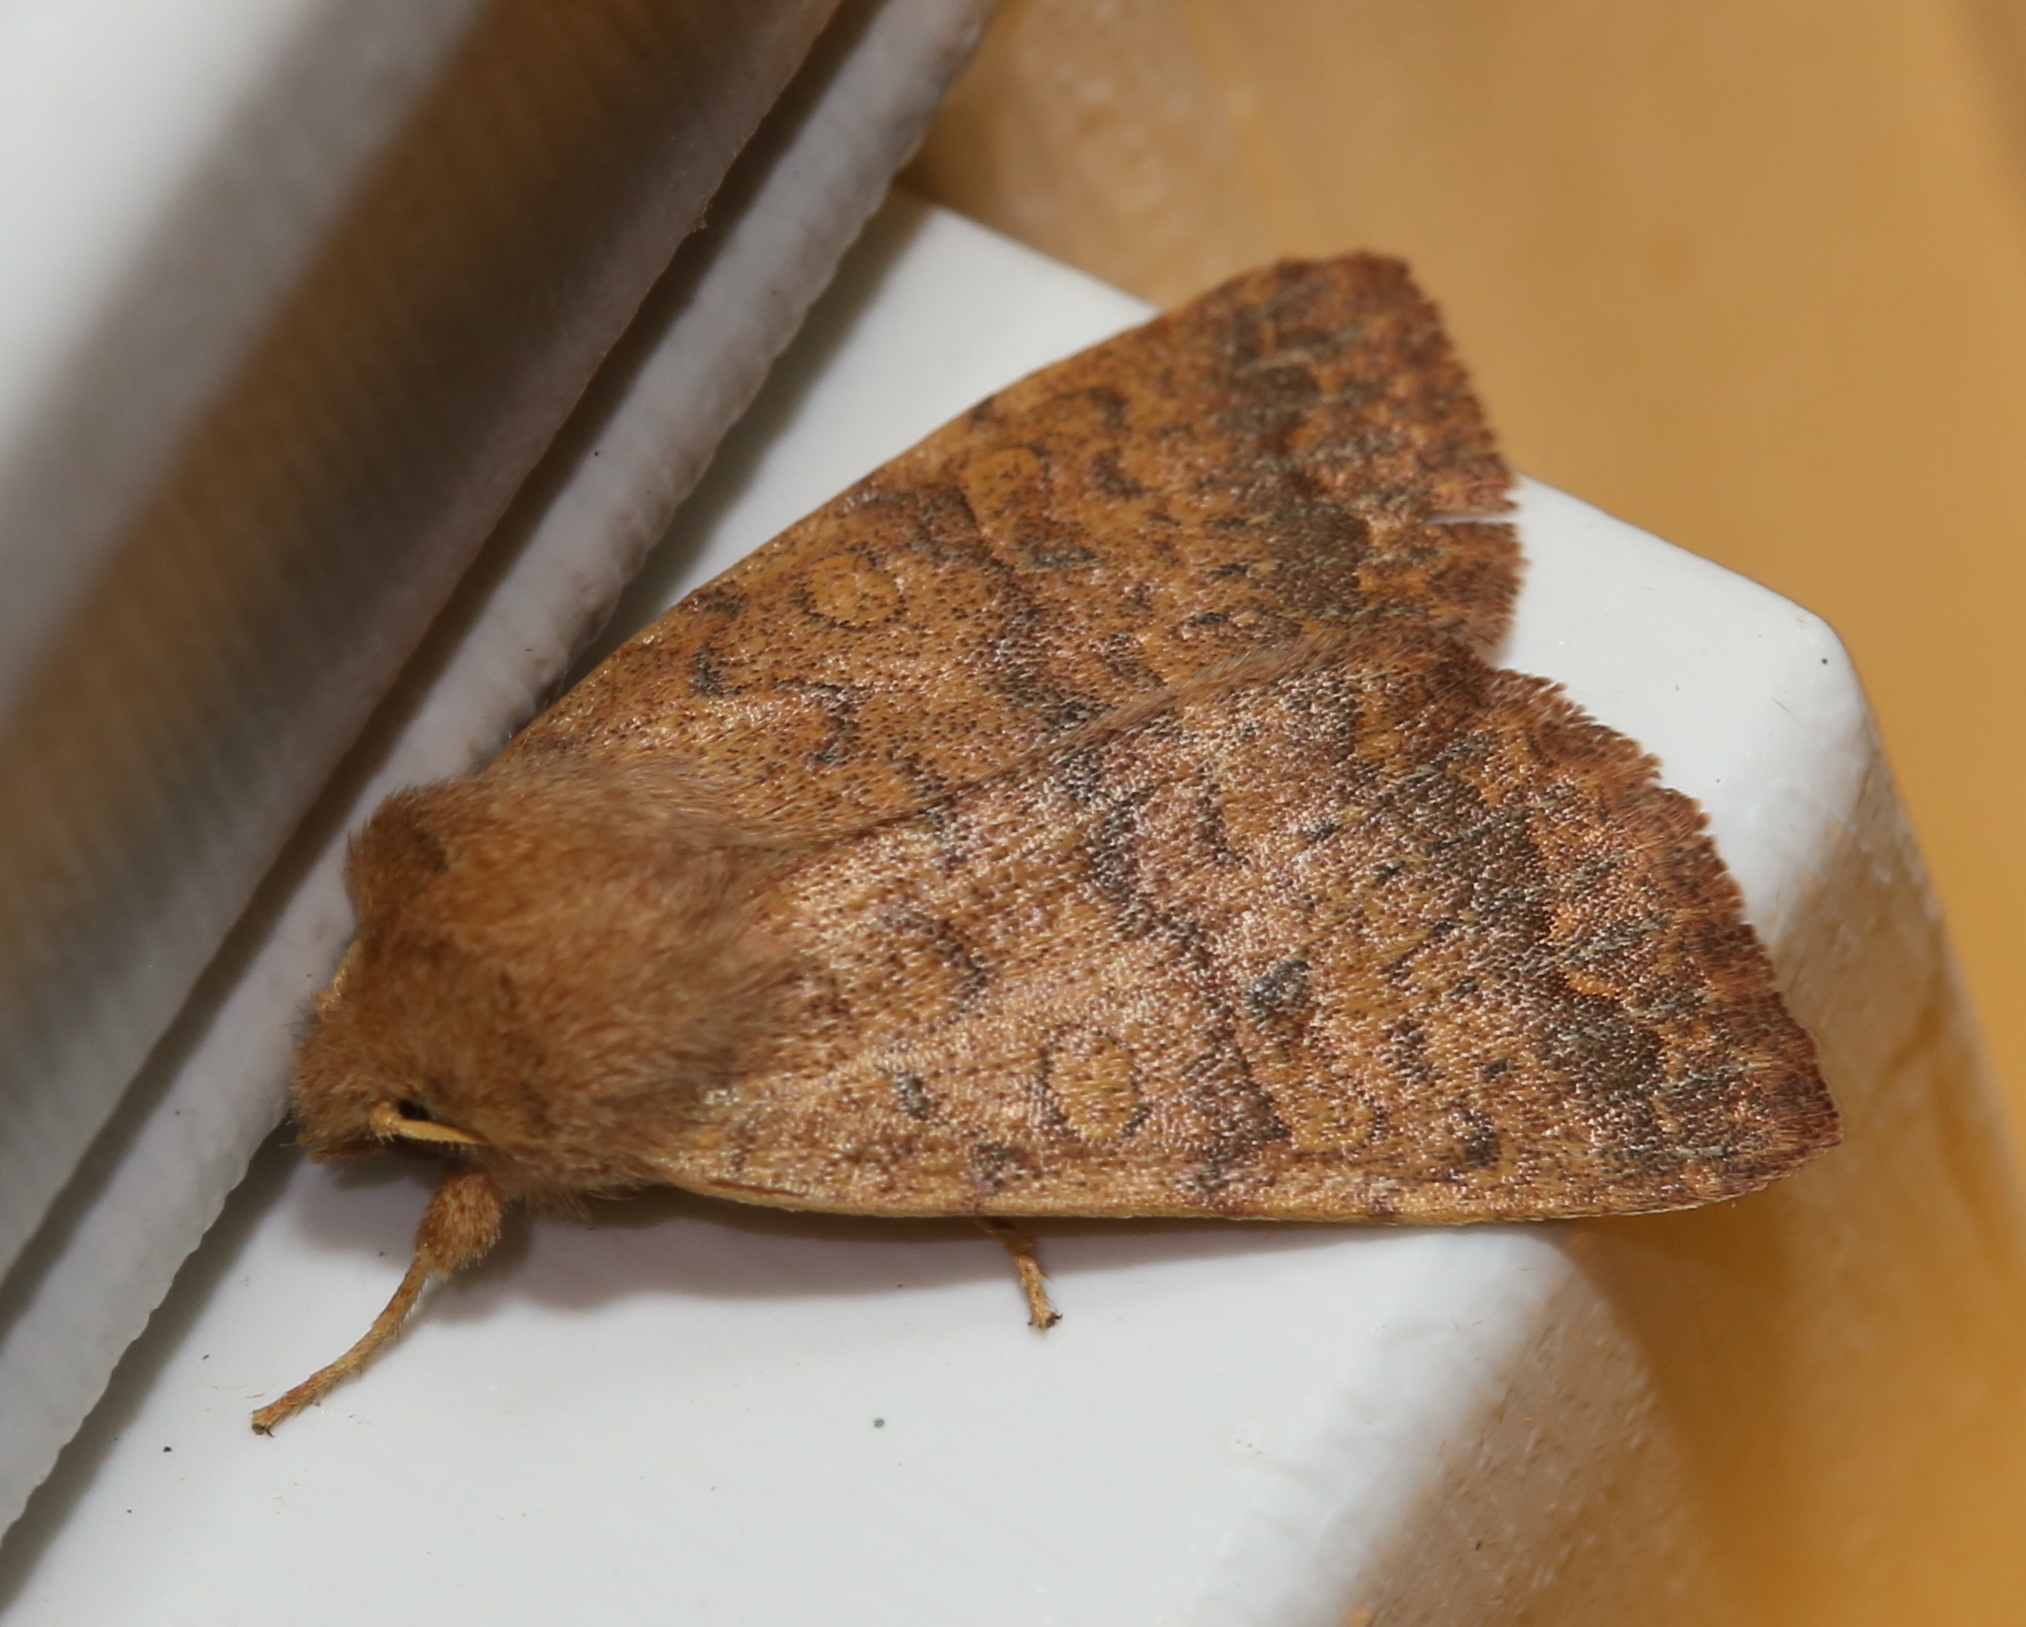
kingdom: Animalia
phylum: Arthropoda
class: Insecta
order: Lepidoptera
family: Noctuidae
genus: Agrochola
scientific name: Agrochola bicolorago
